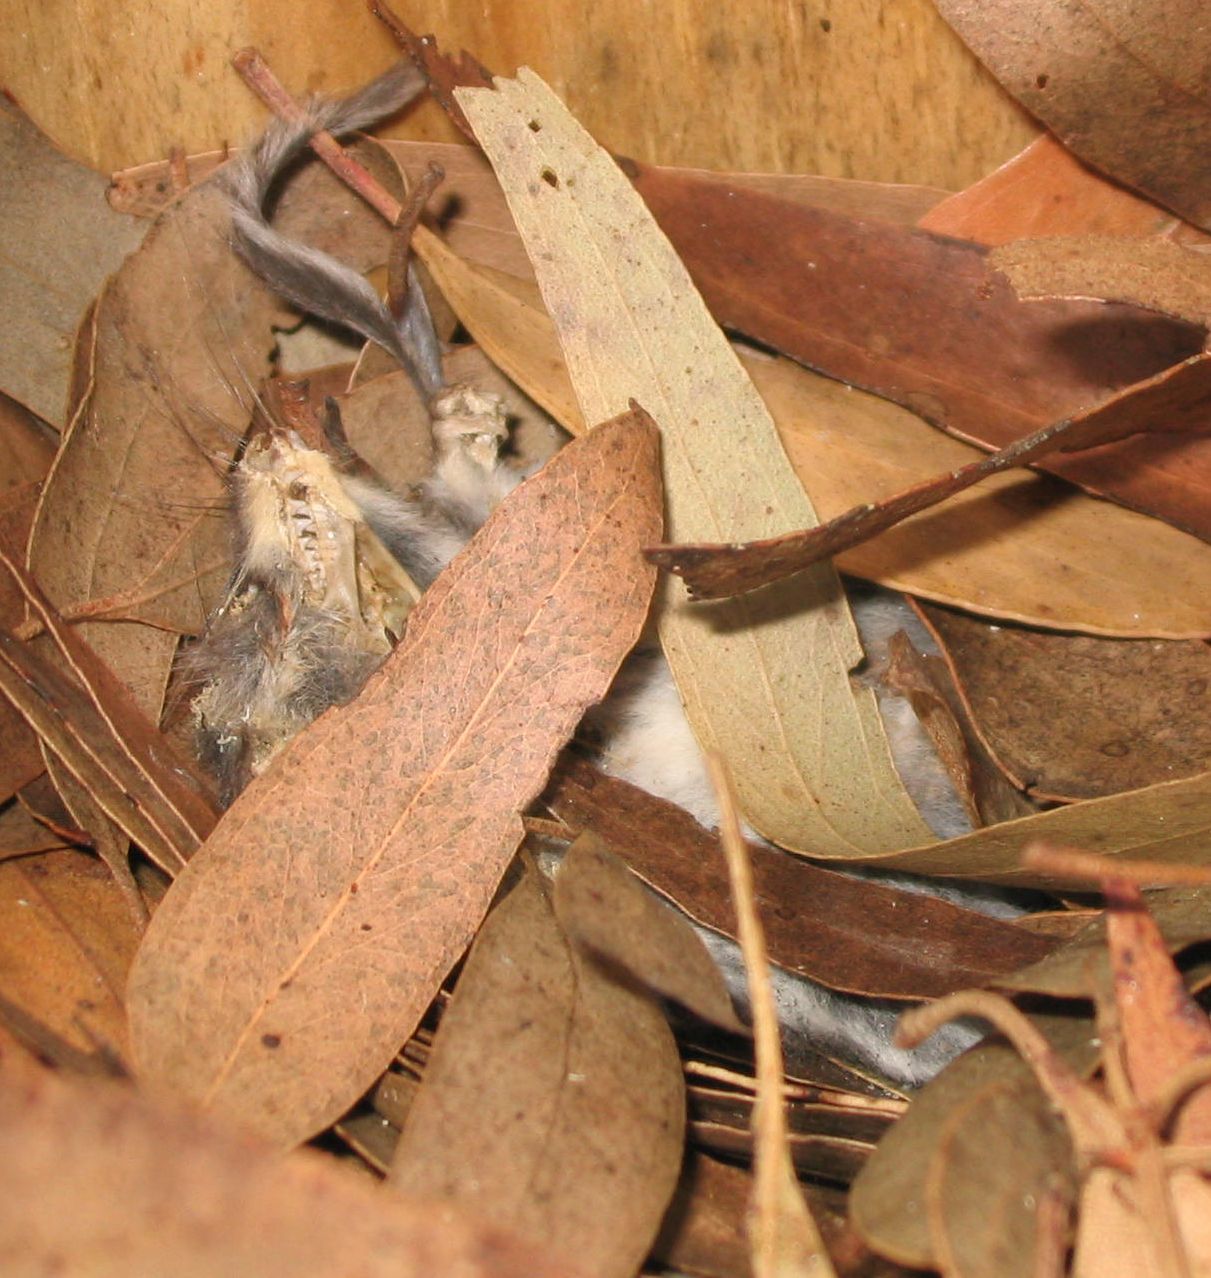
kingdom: Animalia
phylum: Chordata
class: Mammalia
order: Diprotodontia
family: Acrobatidae
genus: Acrobates
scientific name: Acrobates pygmaeus
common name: Feathertail glider
